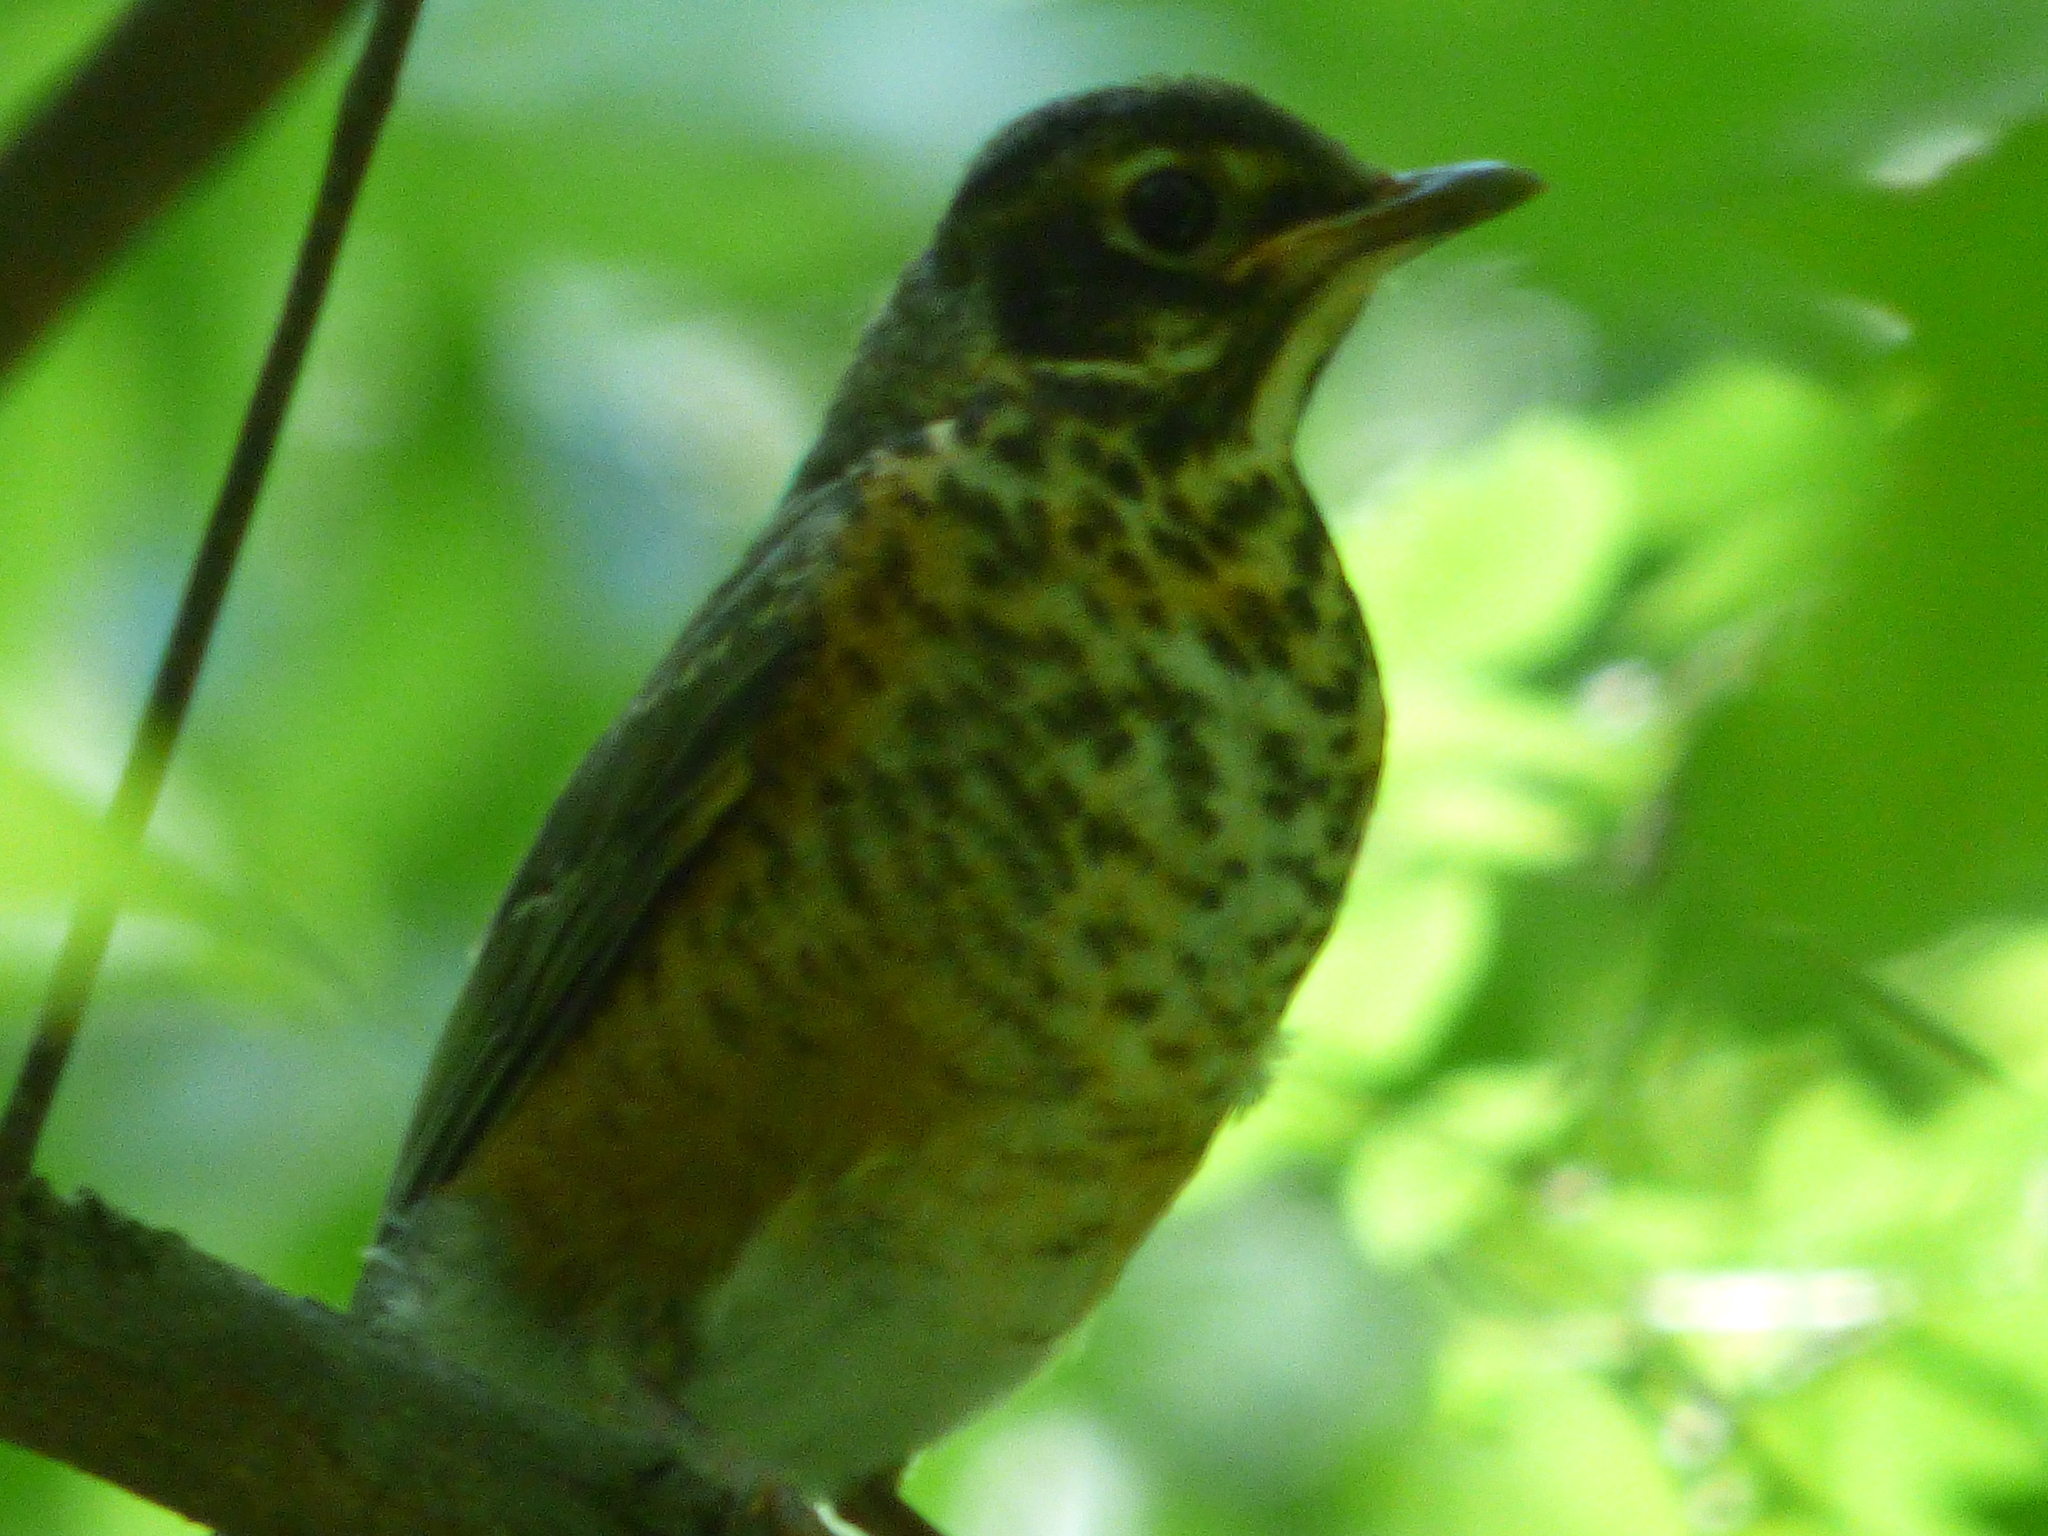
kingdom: Animalia
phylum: Chordata
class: Aves
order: Passeriformes
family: Turdidae
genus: Turdus
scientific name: Turdus migratorius
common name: American robin
